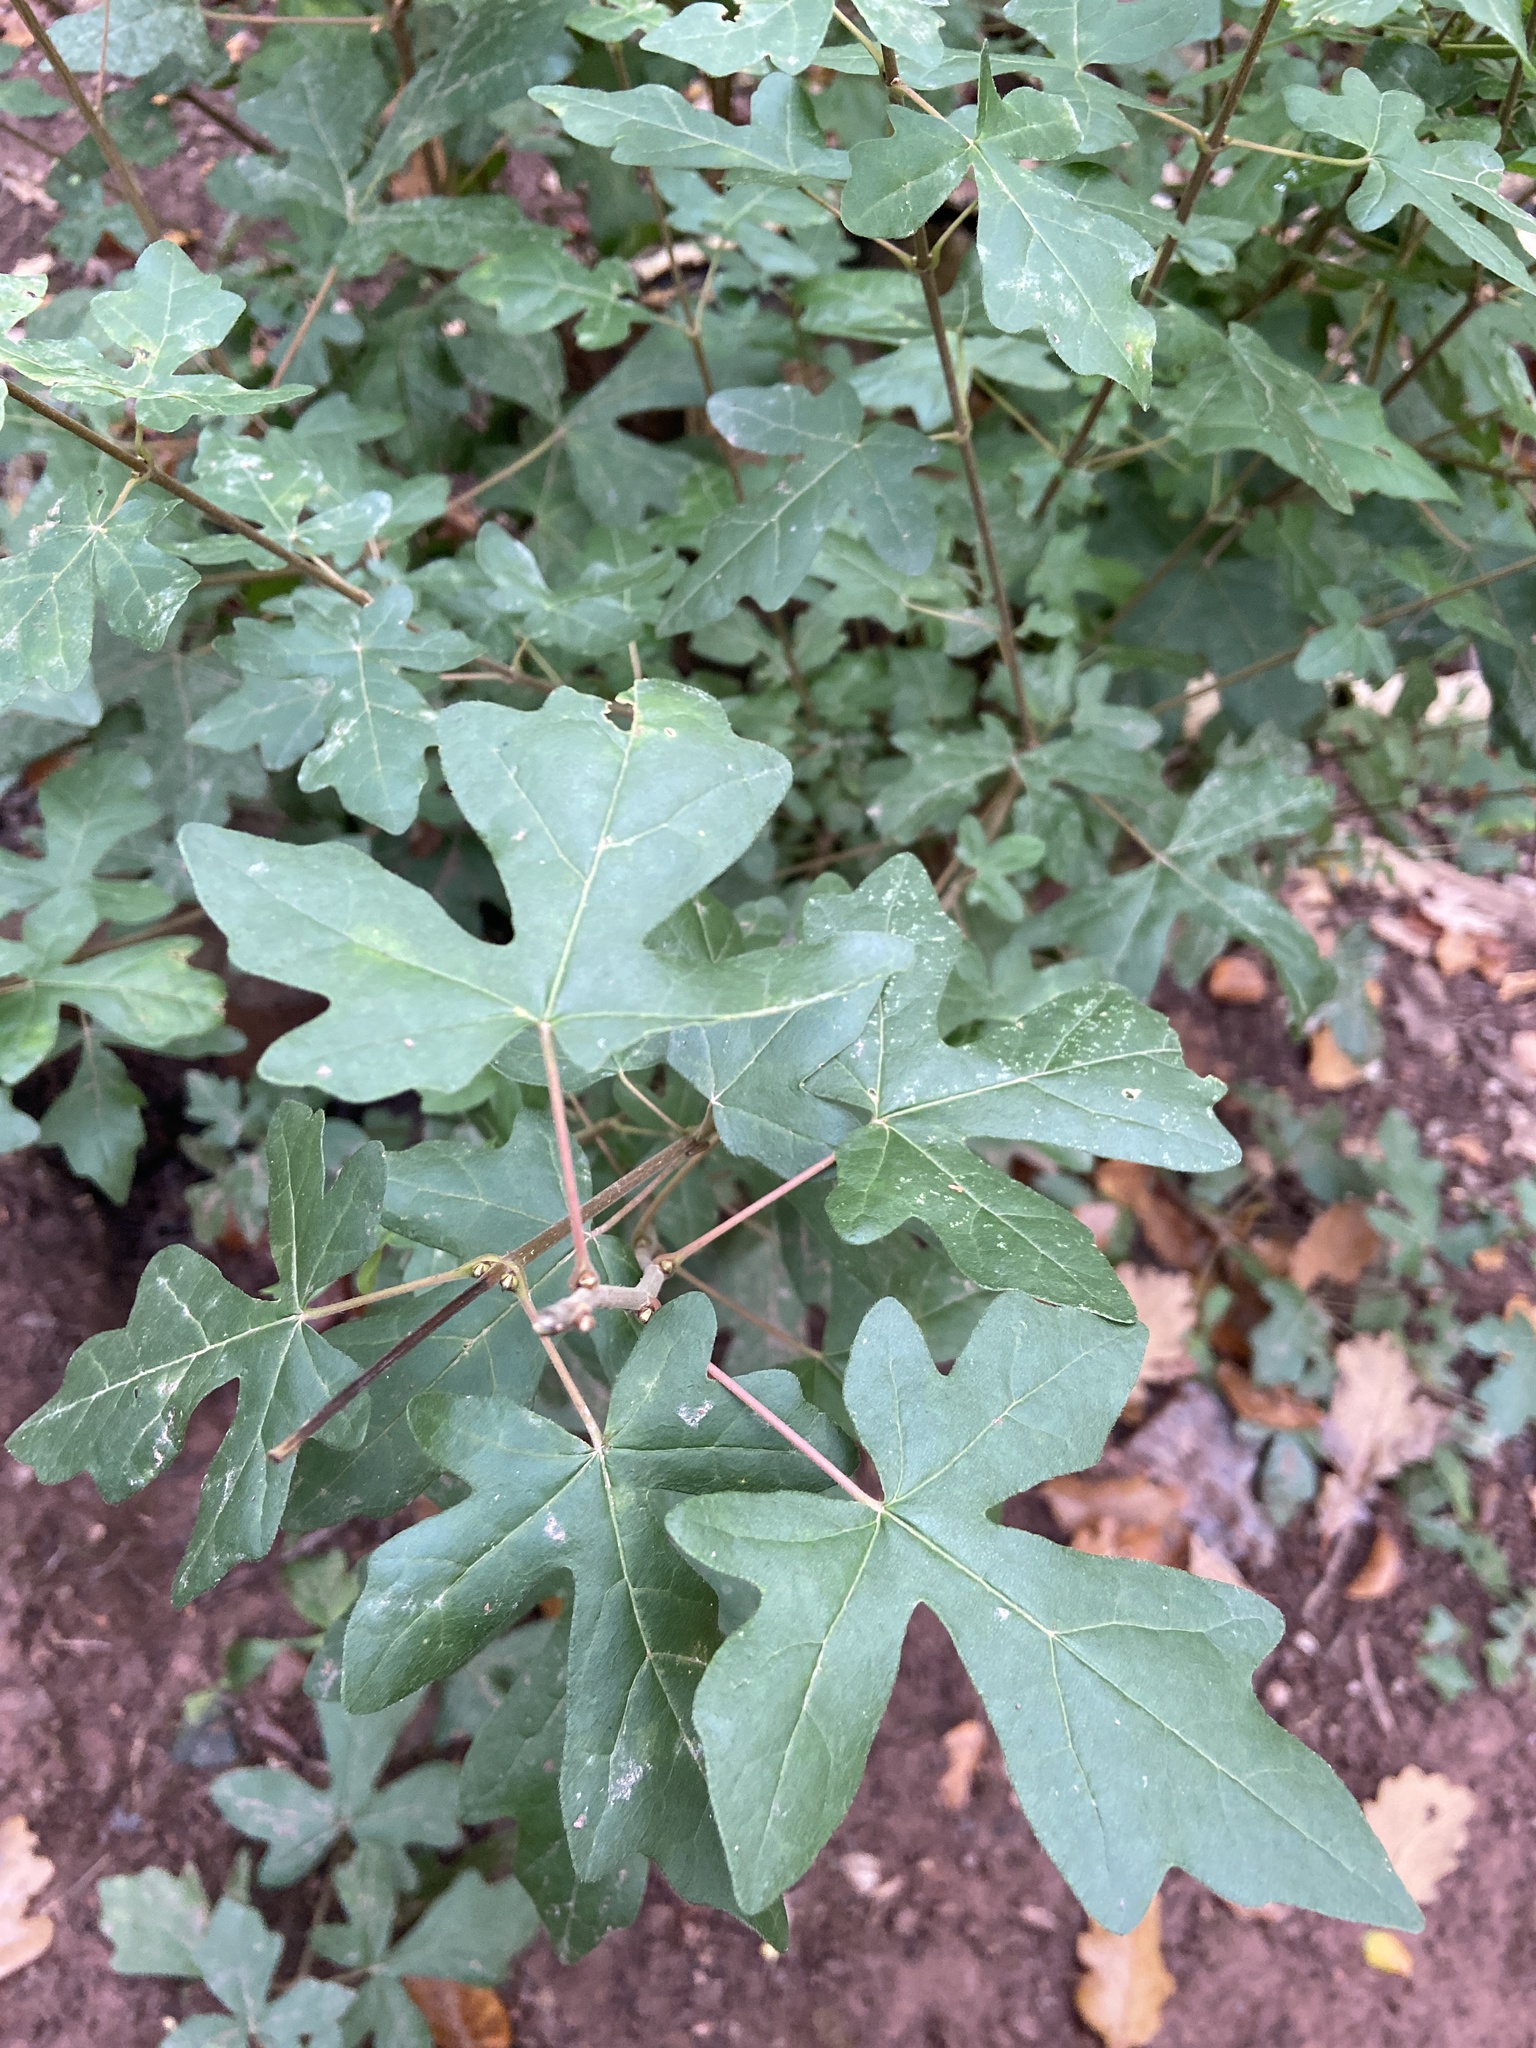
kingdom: Plantae
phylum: Tracheophyta
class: Magnoliopsida
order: Sapindales
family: Sapindaceae
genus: Acer
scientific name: Acer campestre
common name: Field maple
